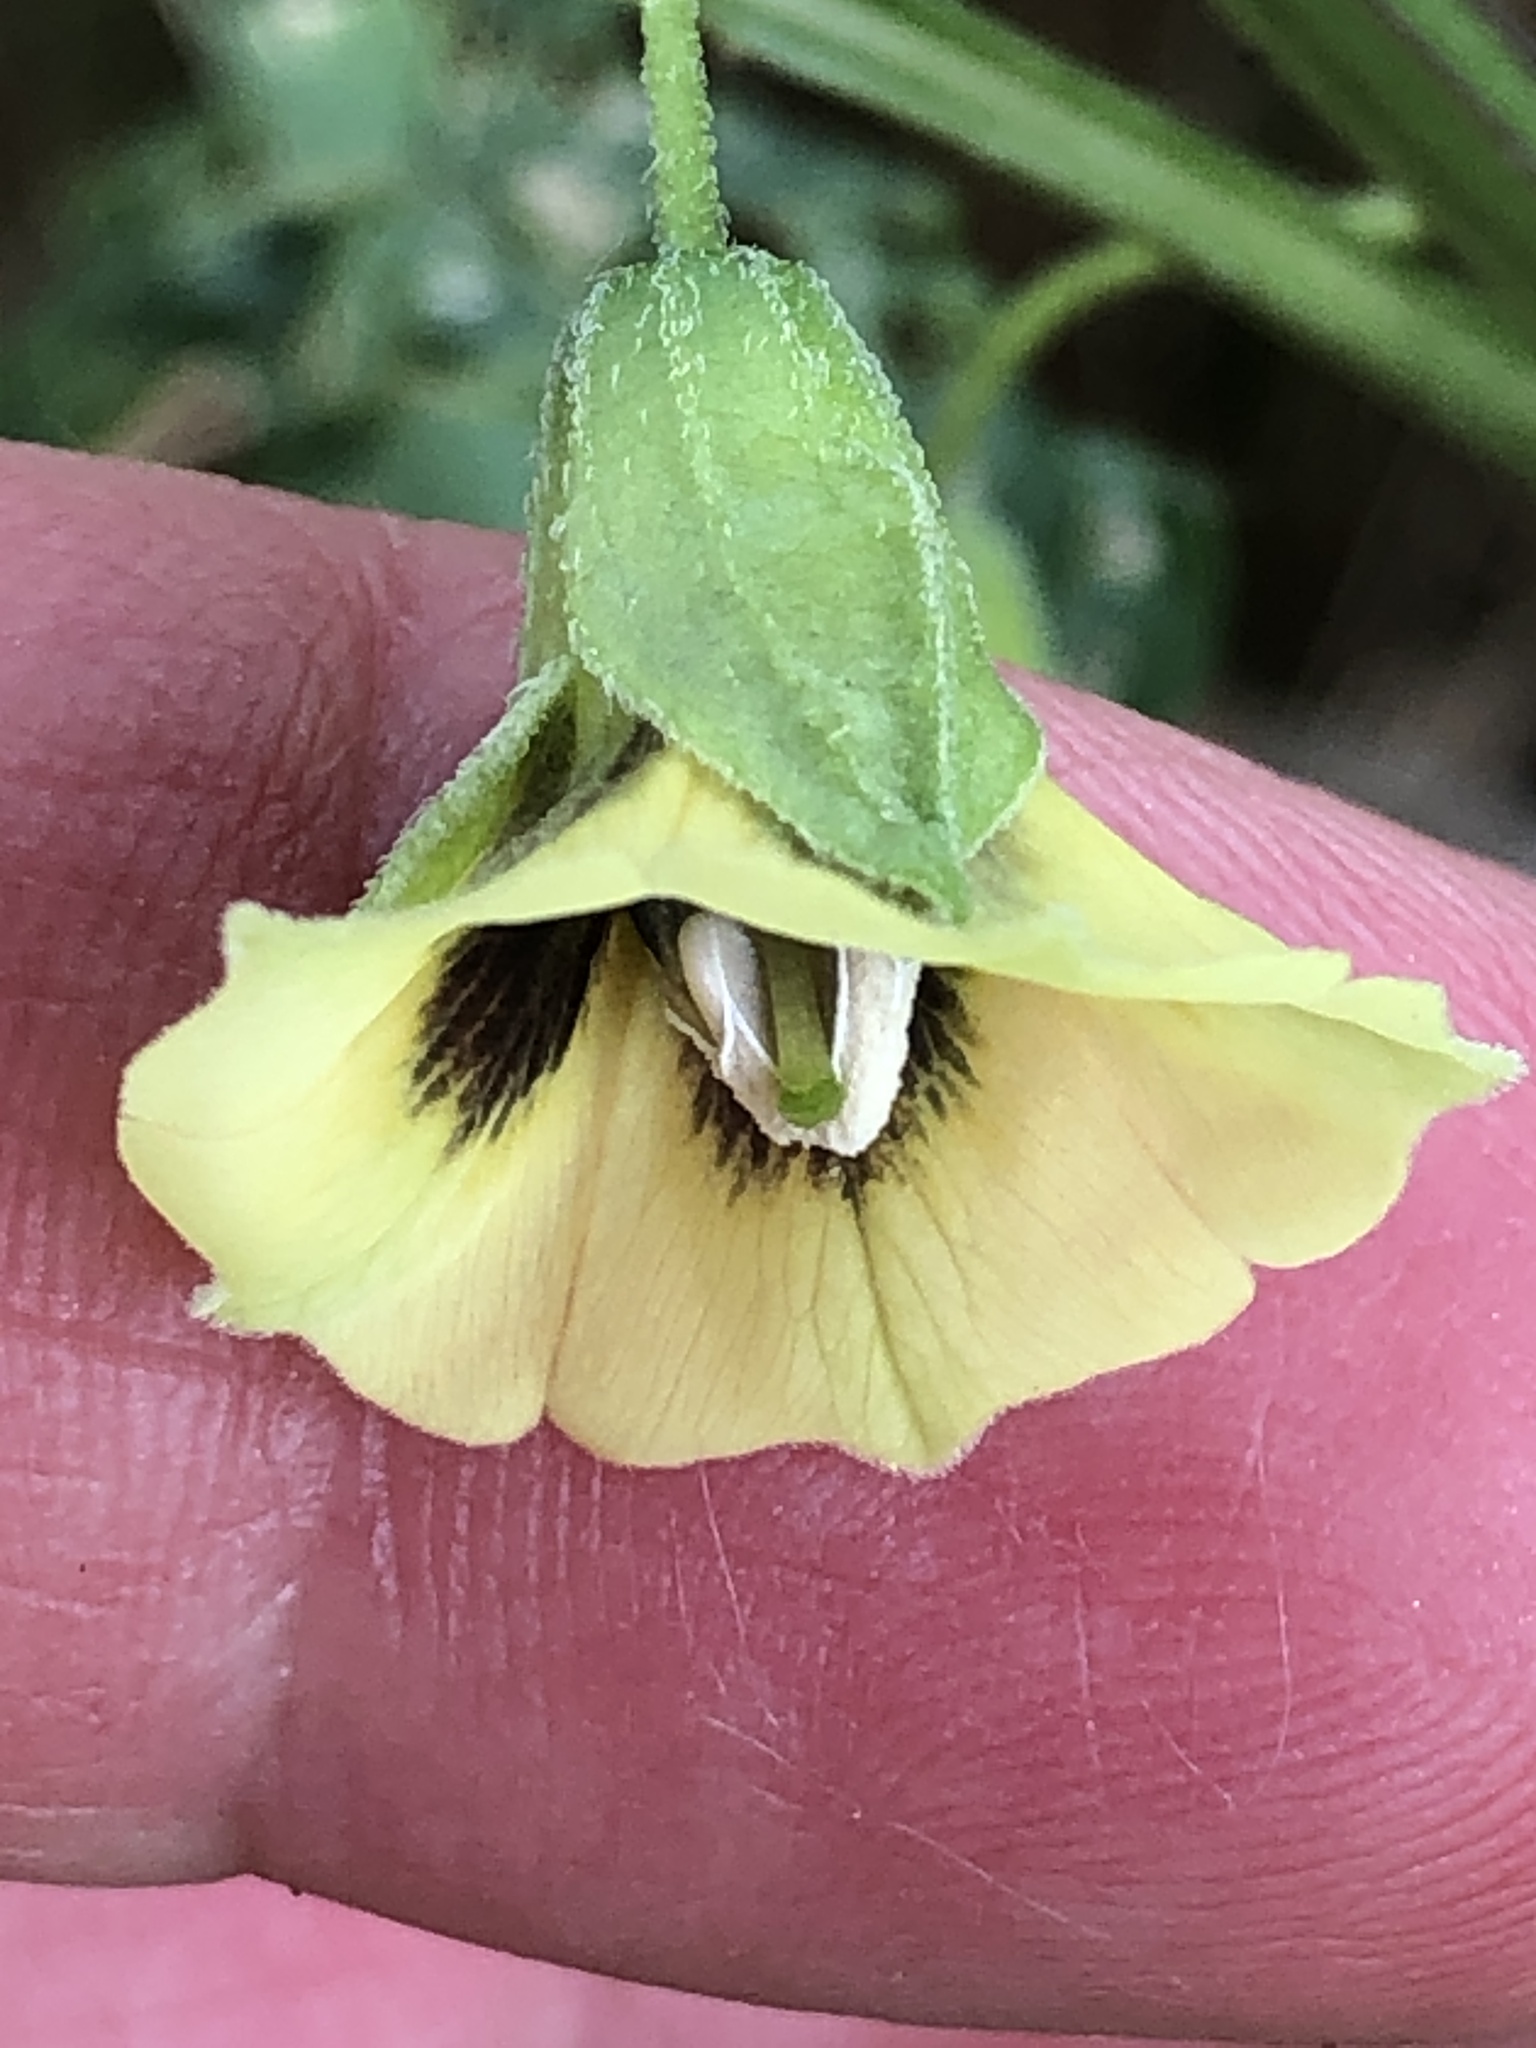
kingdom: Plantae
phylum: Tracheophyta
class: Magnoliopsida
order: Solanales
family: Solanaceae
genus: Physalis
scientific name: Physalis longifolia
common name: Common ground-cherry
